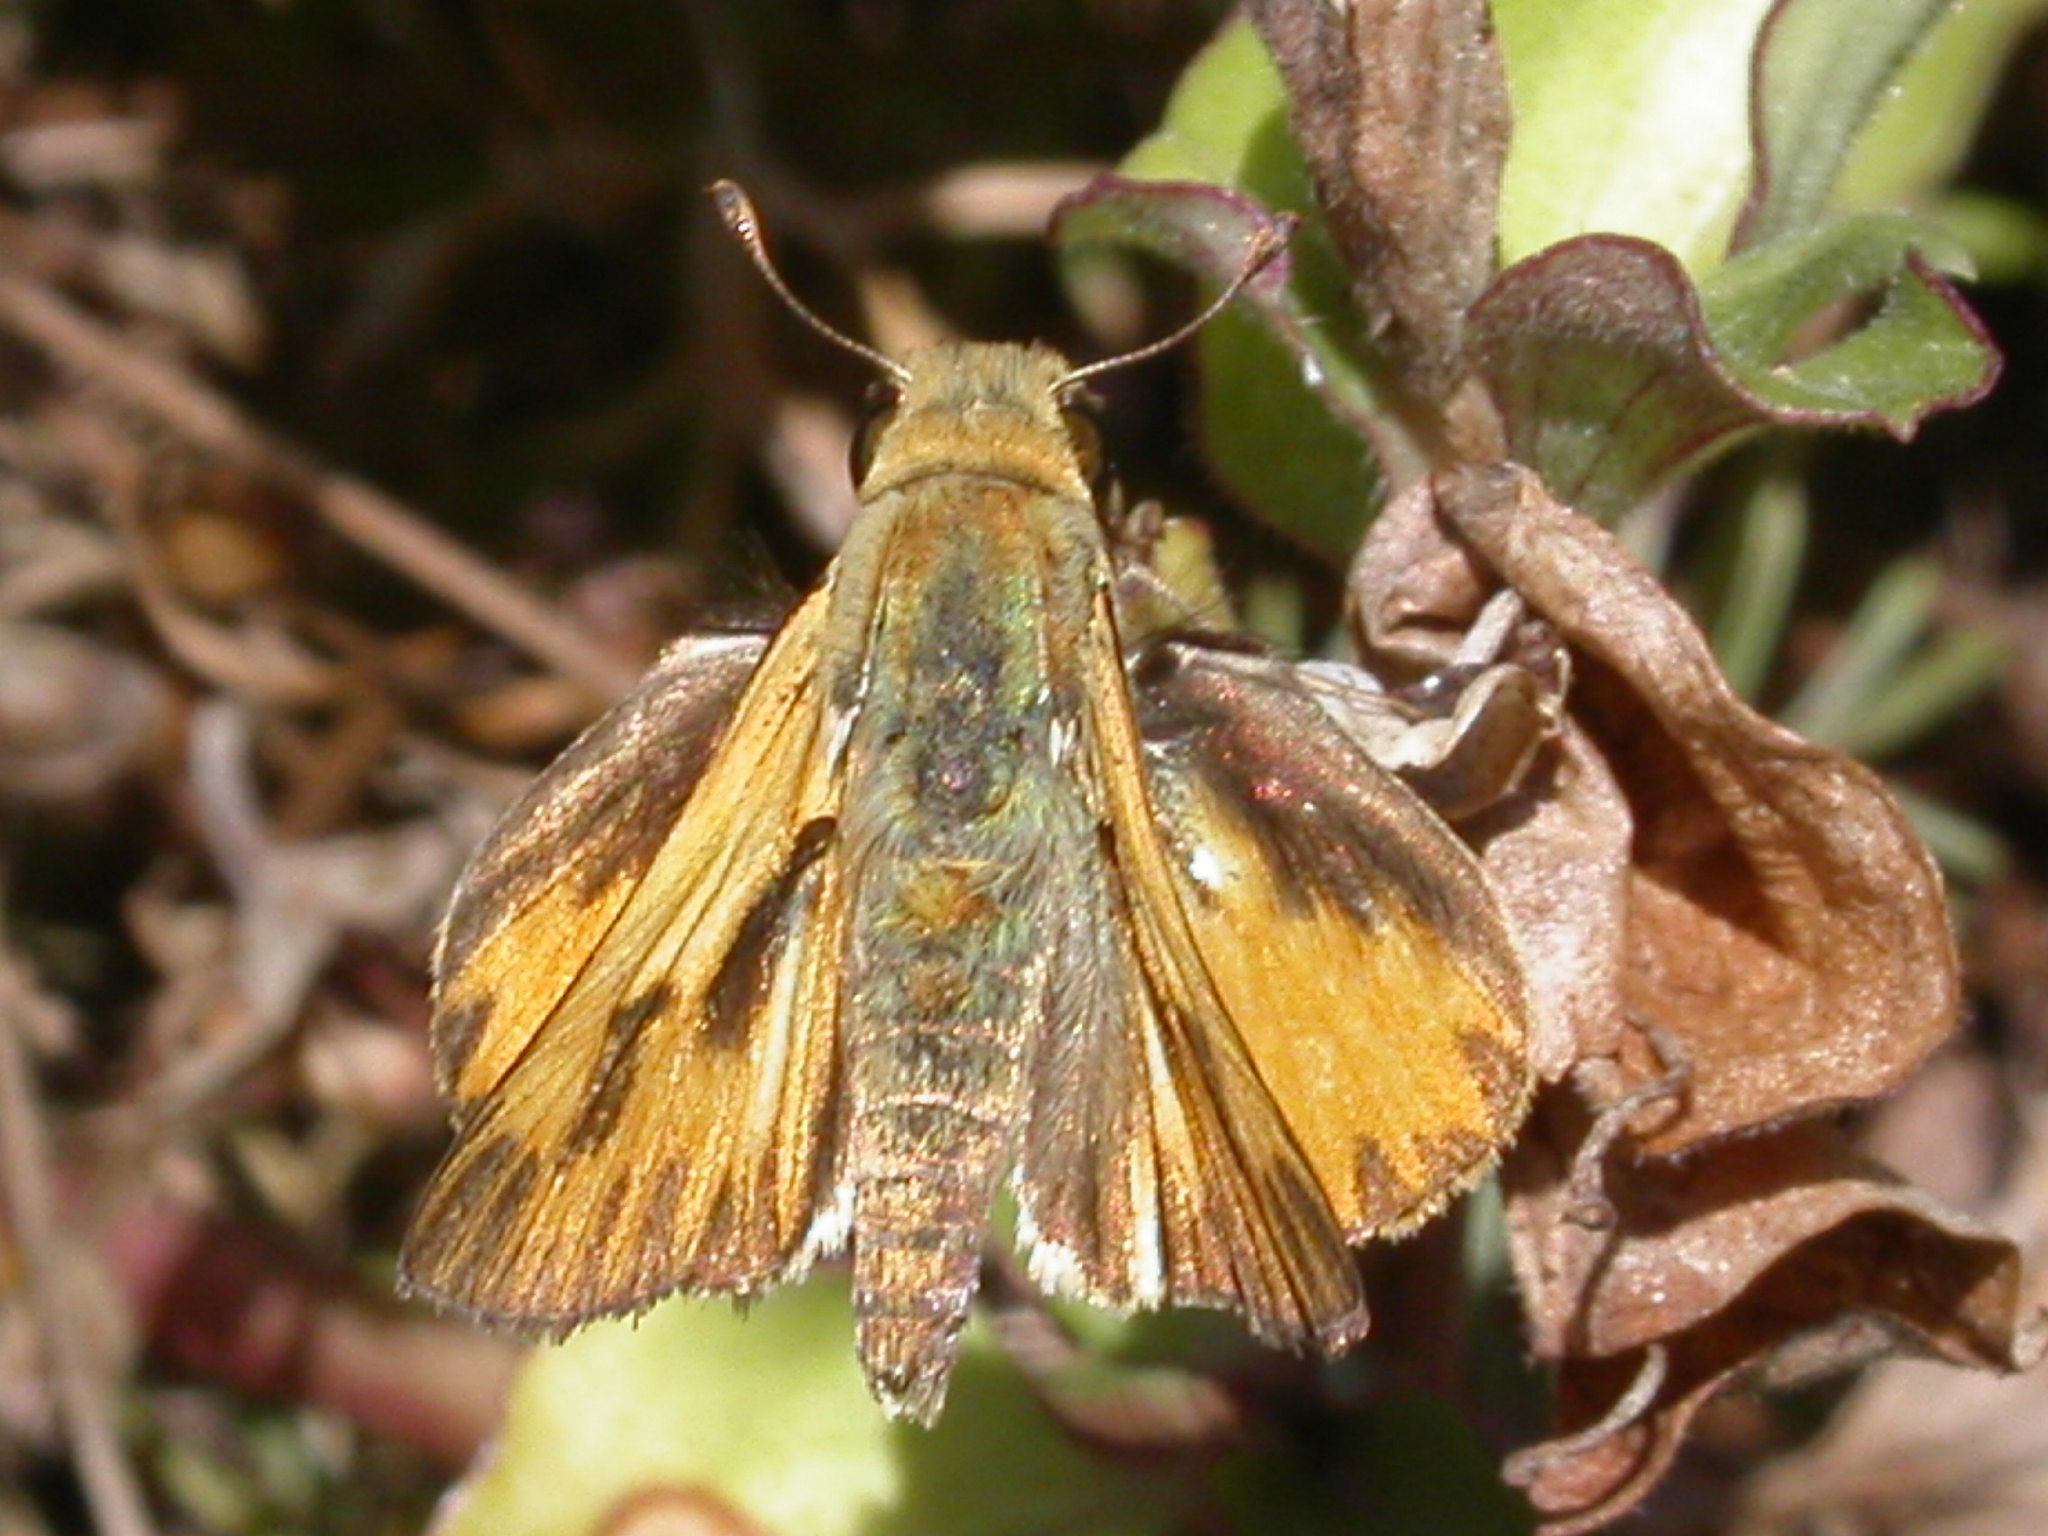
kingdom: Animalia
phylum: Arthropoda
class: Insecta
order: Lepidoptera
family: Hesperiidae
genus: Hylephila
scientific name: Hylephila phyleus
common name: Fiery skipper
